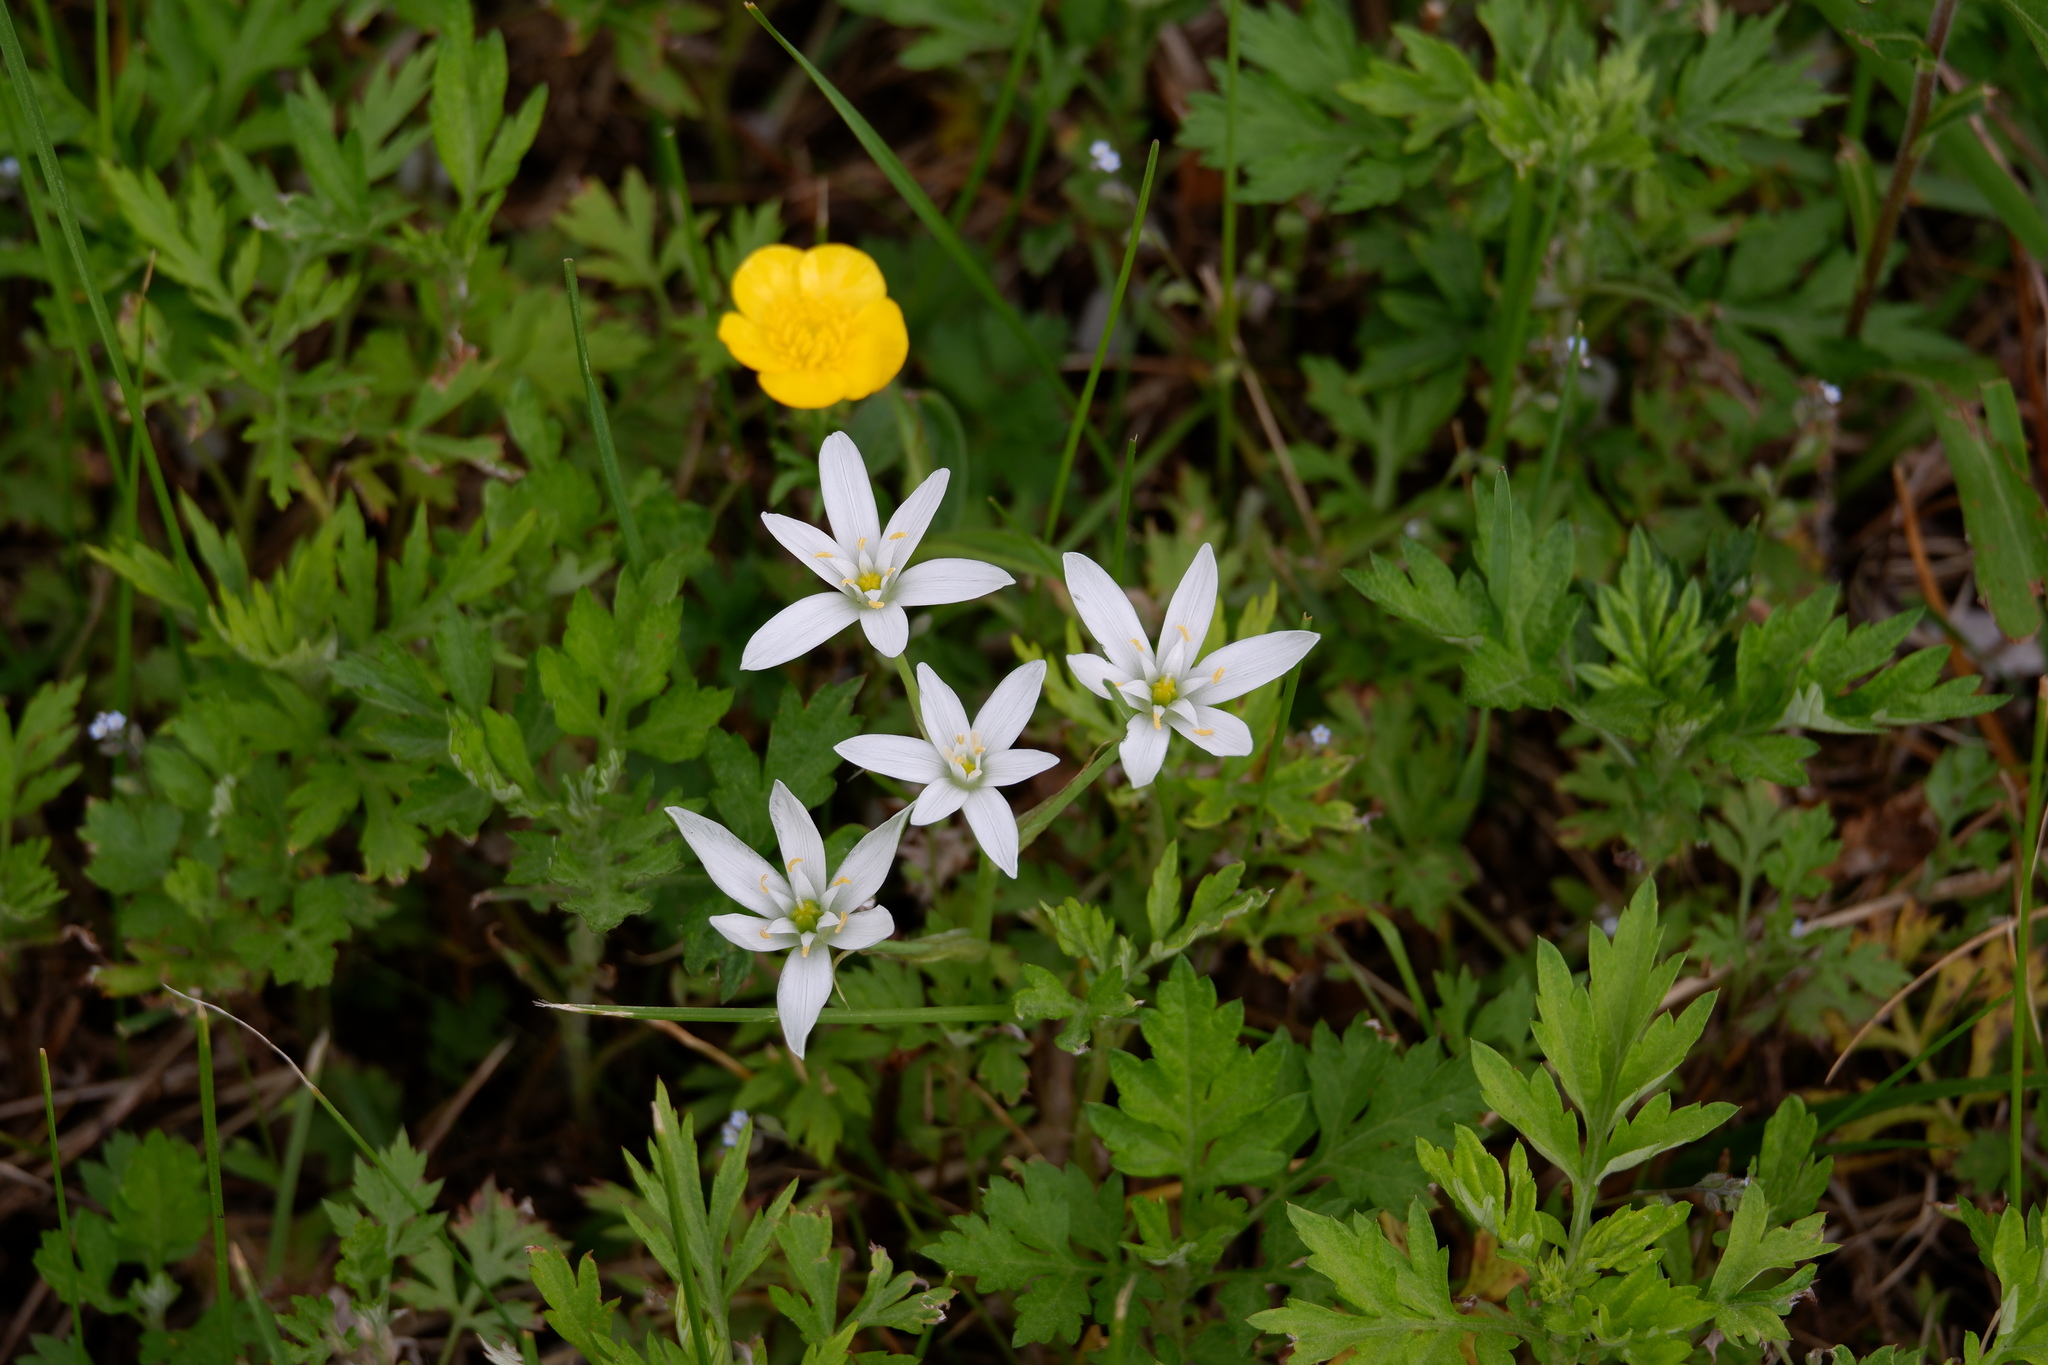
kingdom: Plantae
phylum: Tracheophyta
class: Liliopsida
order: Asparagales
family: Asparagaceae
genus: Ornithogalum
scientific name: Ornithogalum umbellatum
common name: Garden star-of-bethlehem
